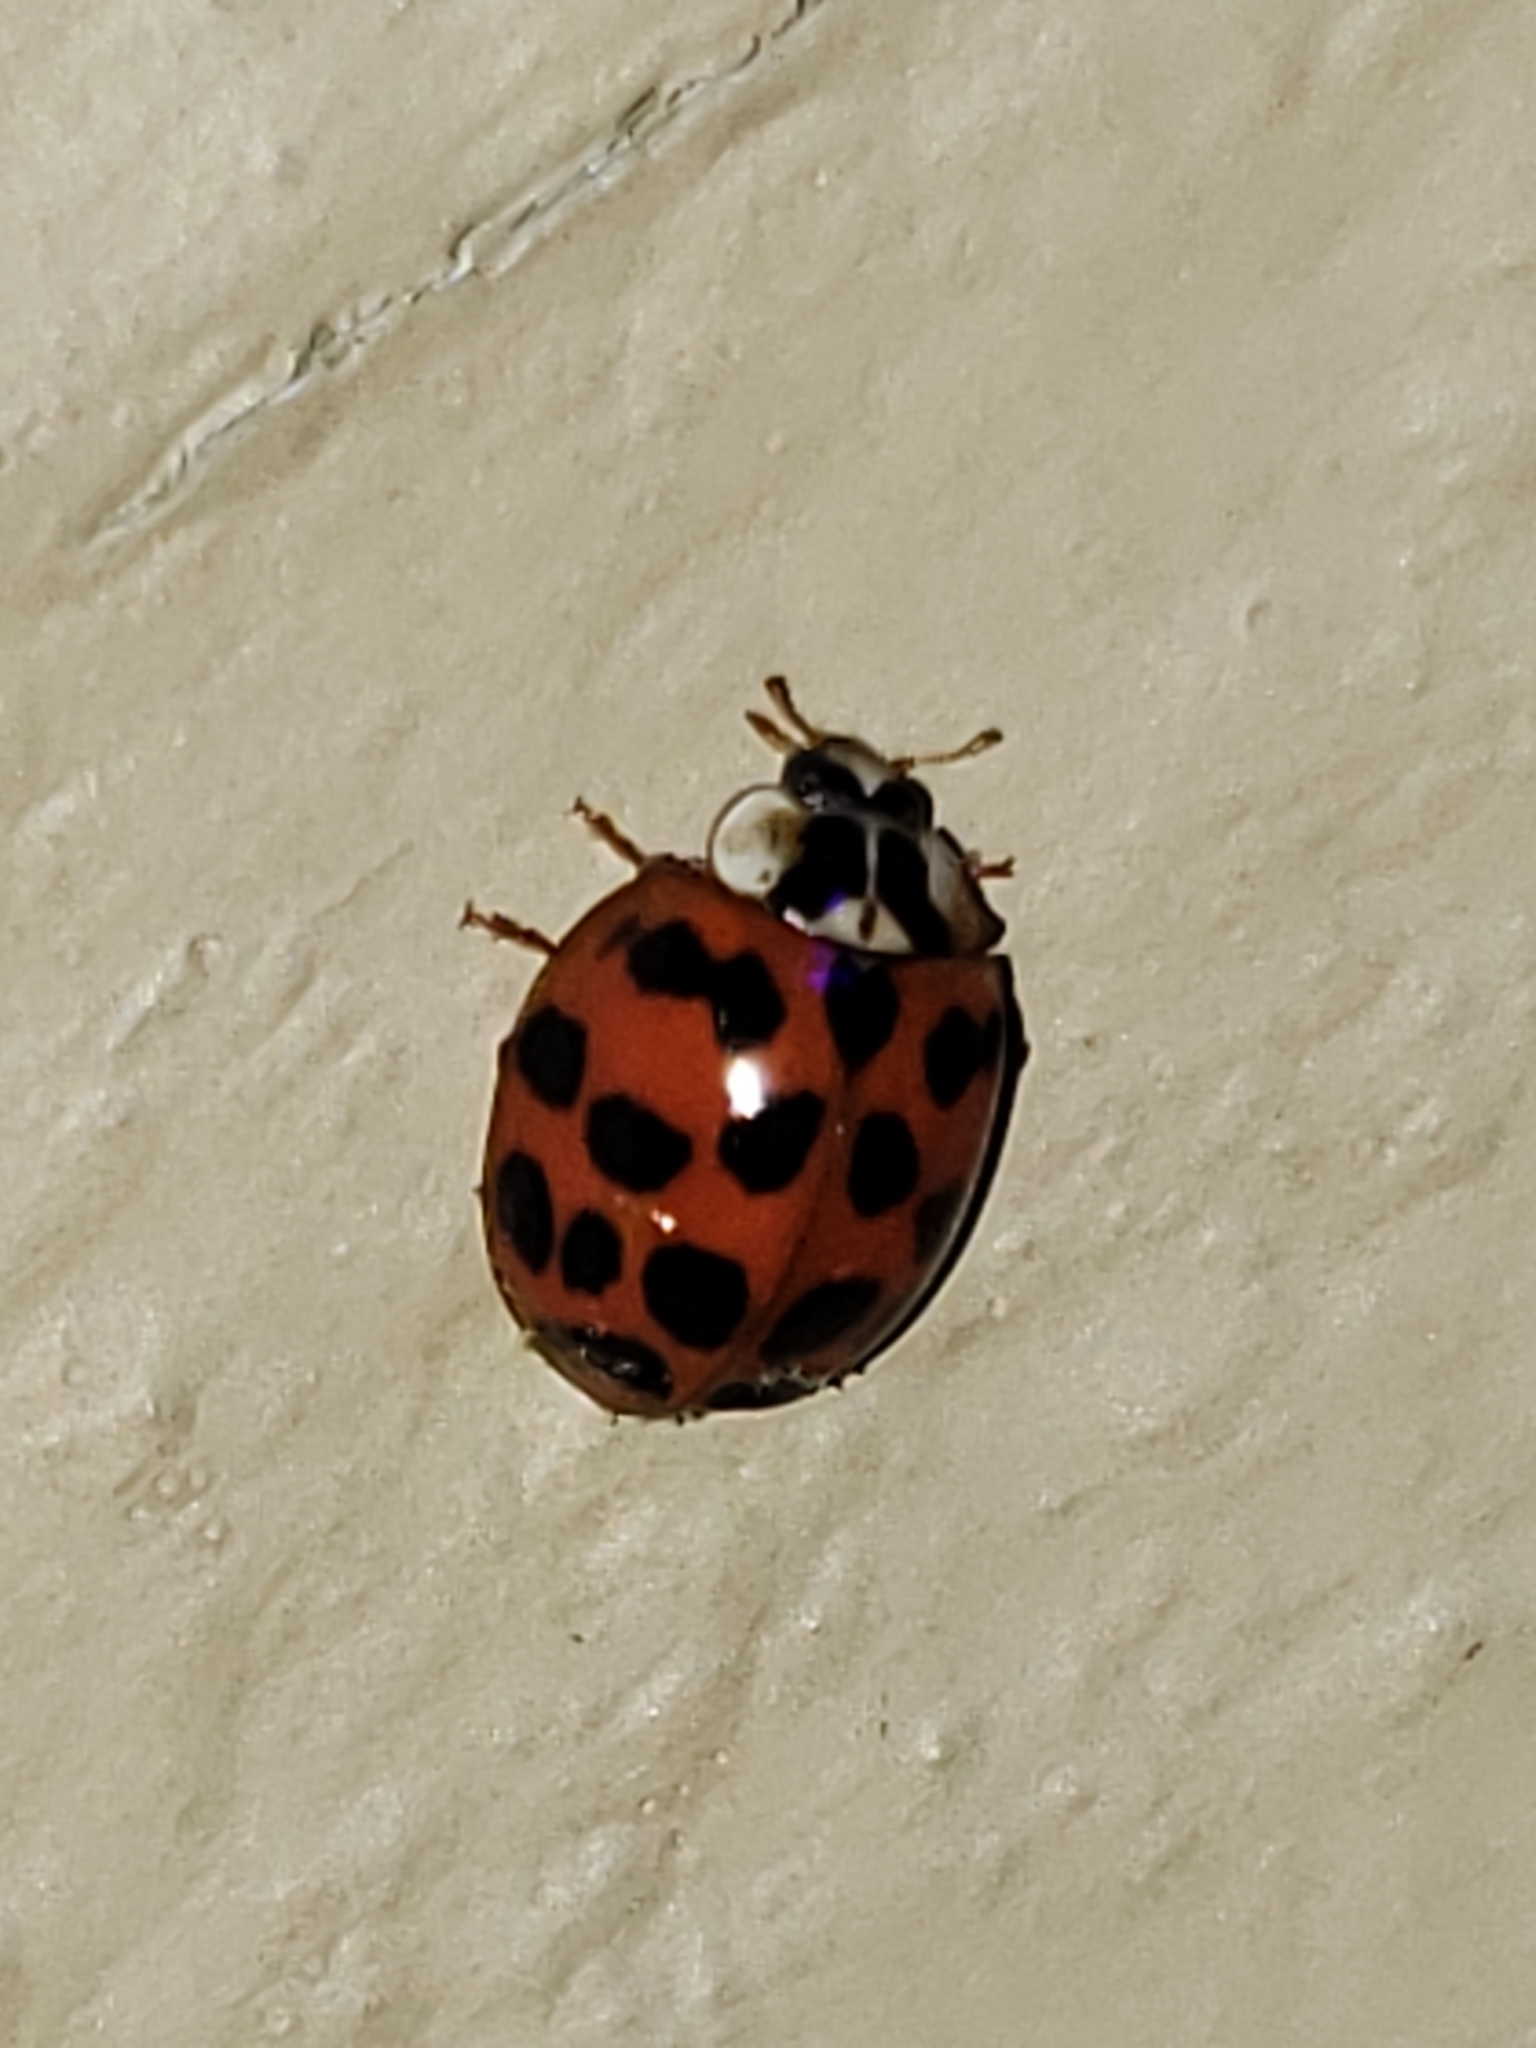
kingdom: Animalia
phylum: Arthropoda
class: Insecta
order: Coleoptera
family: Coccinellidae
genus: Harmonia
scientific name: Harmonia axyridis
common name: Harlequin ladybird
